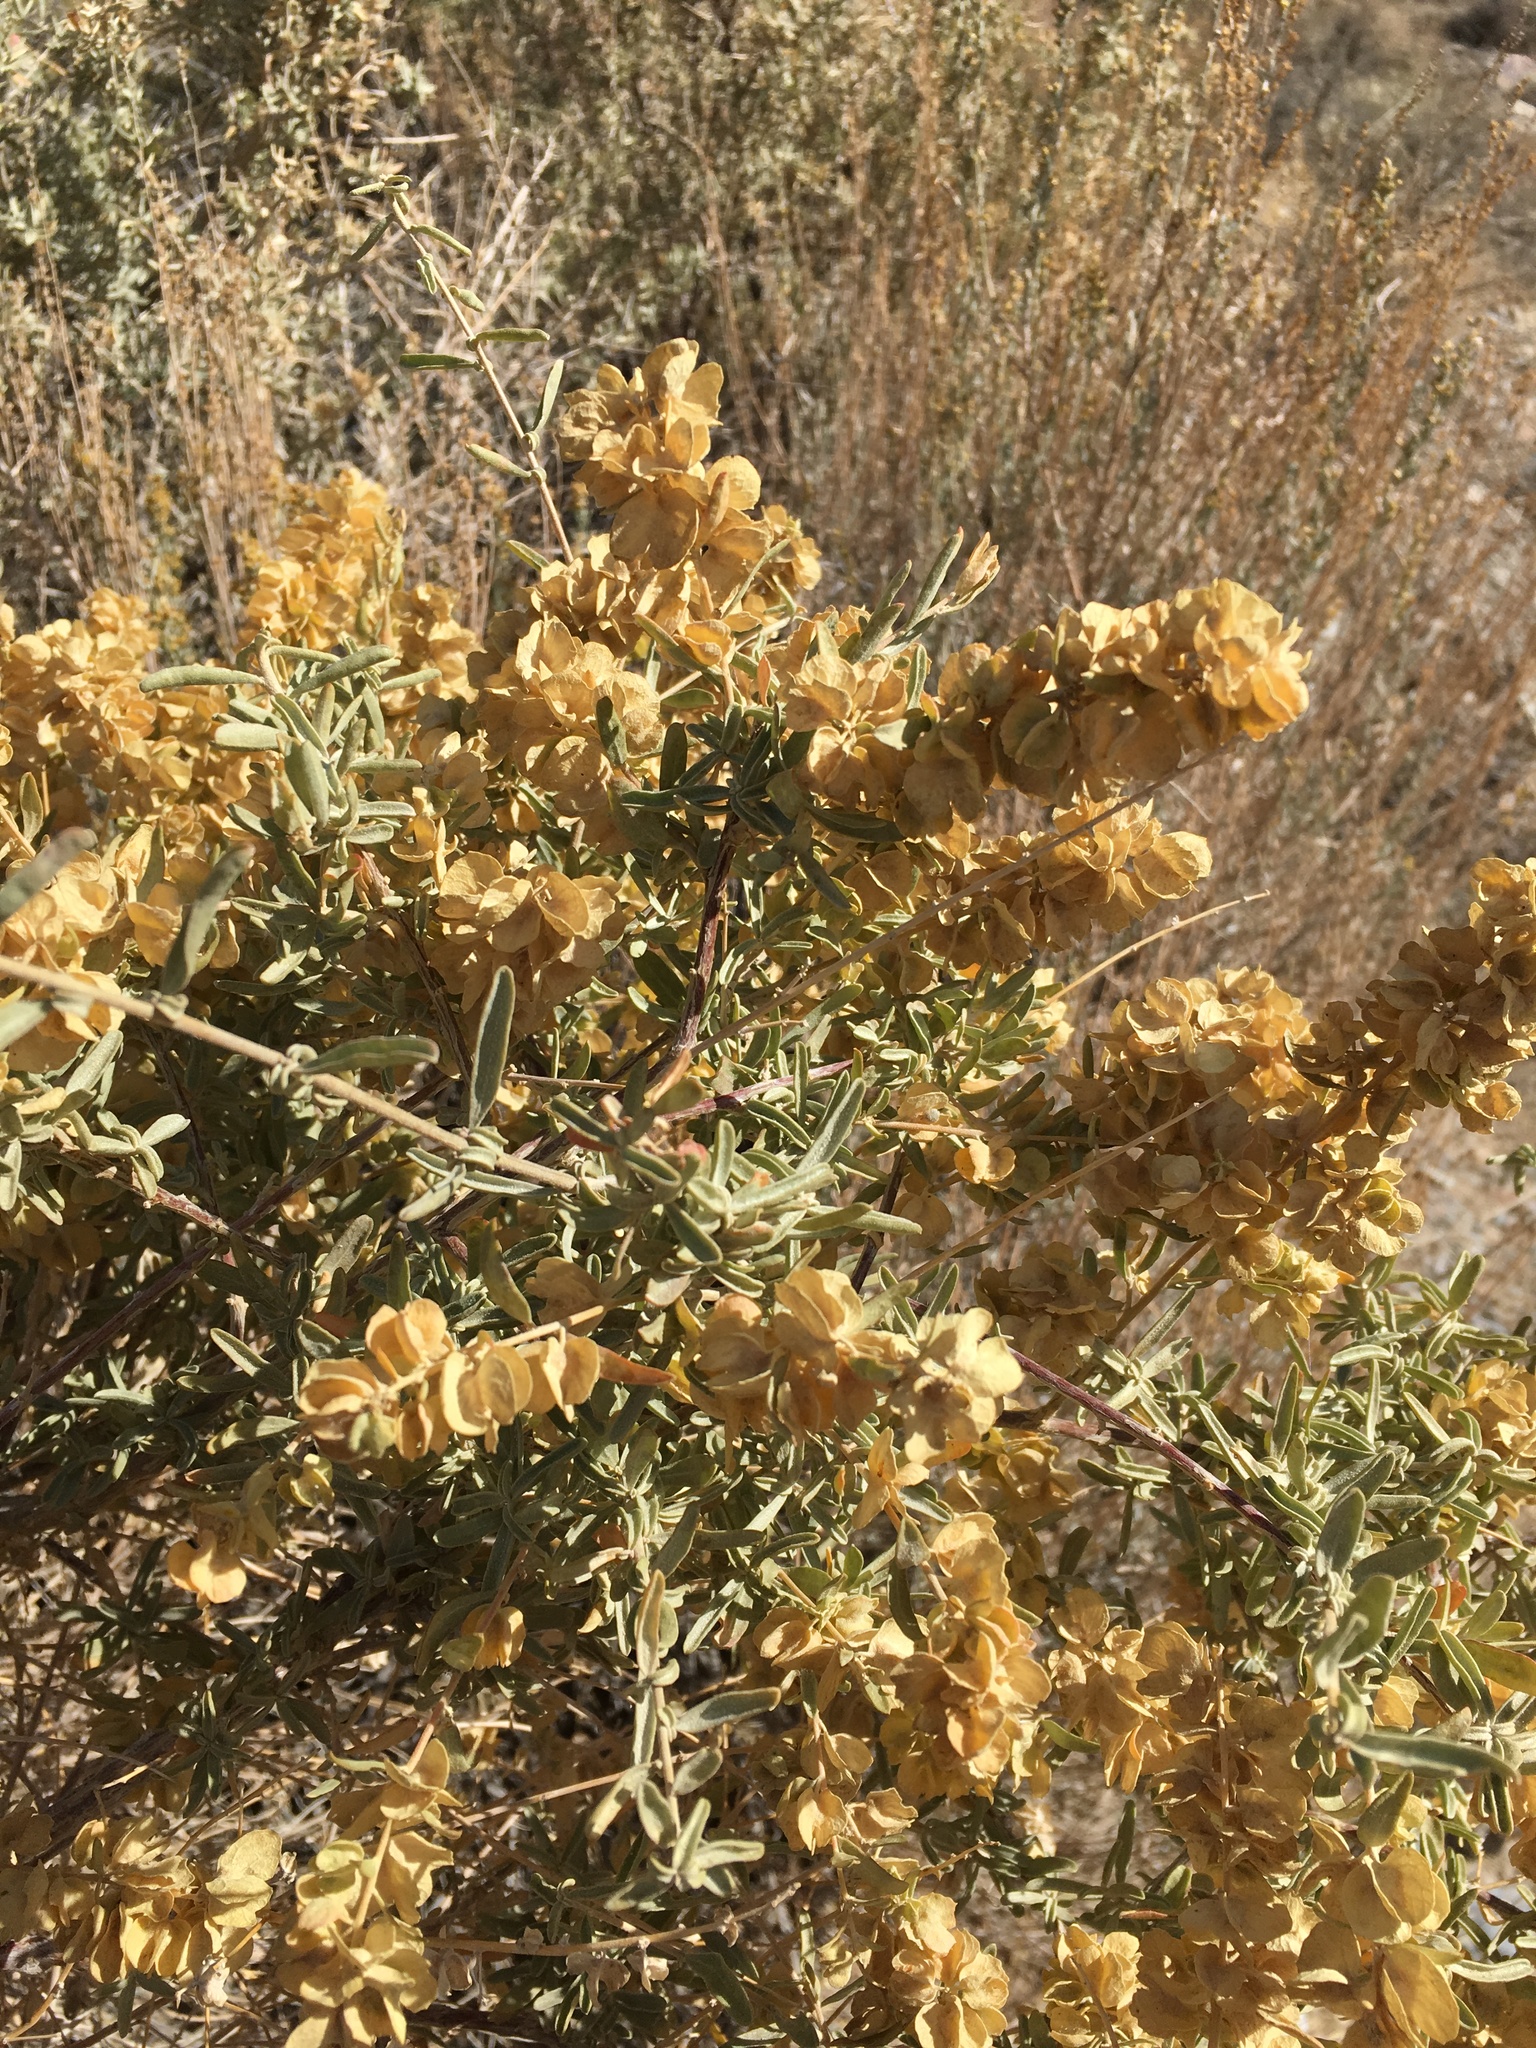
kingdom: Plantae
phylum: Tracheophyta
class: Magnoliopsida
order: Caryophyllales
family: Amaranthaceae
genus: Atriplex
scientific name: Atriplex canescens
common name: Four-wing saltbush
